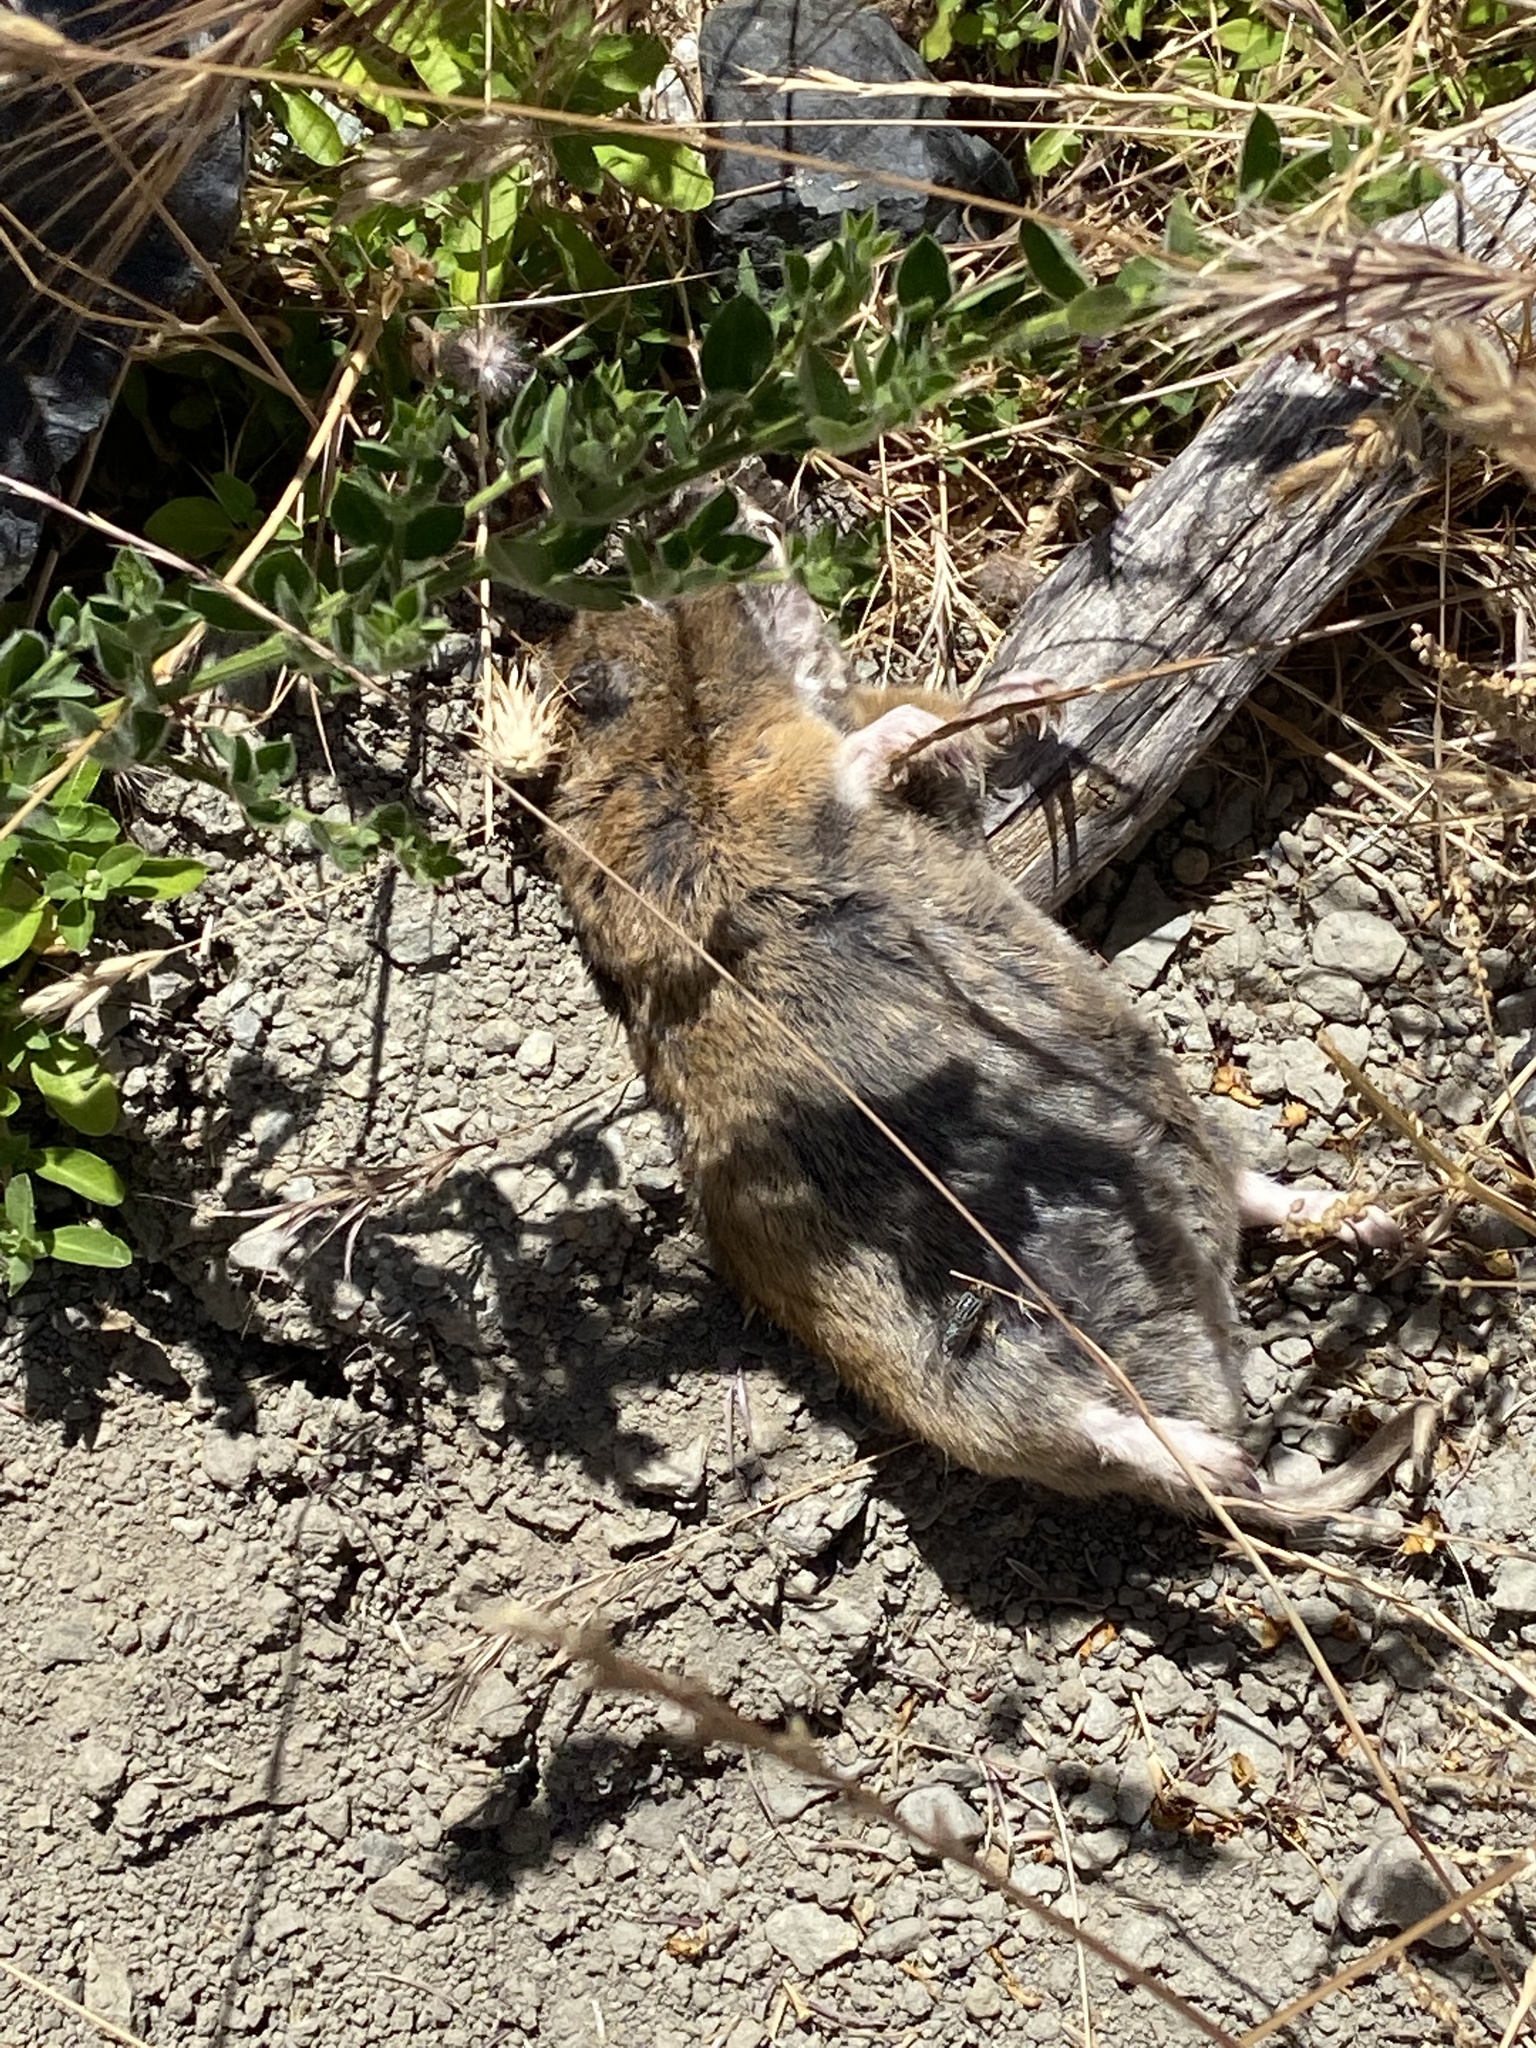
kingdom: Animalia
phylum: Chordata
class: Mammalia
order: Rodentia
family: Geomyidae
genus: Thomomys
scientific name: Thomomys bottae
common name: Botta's pocket gopher
